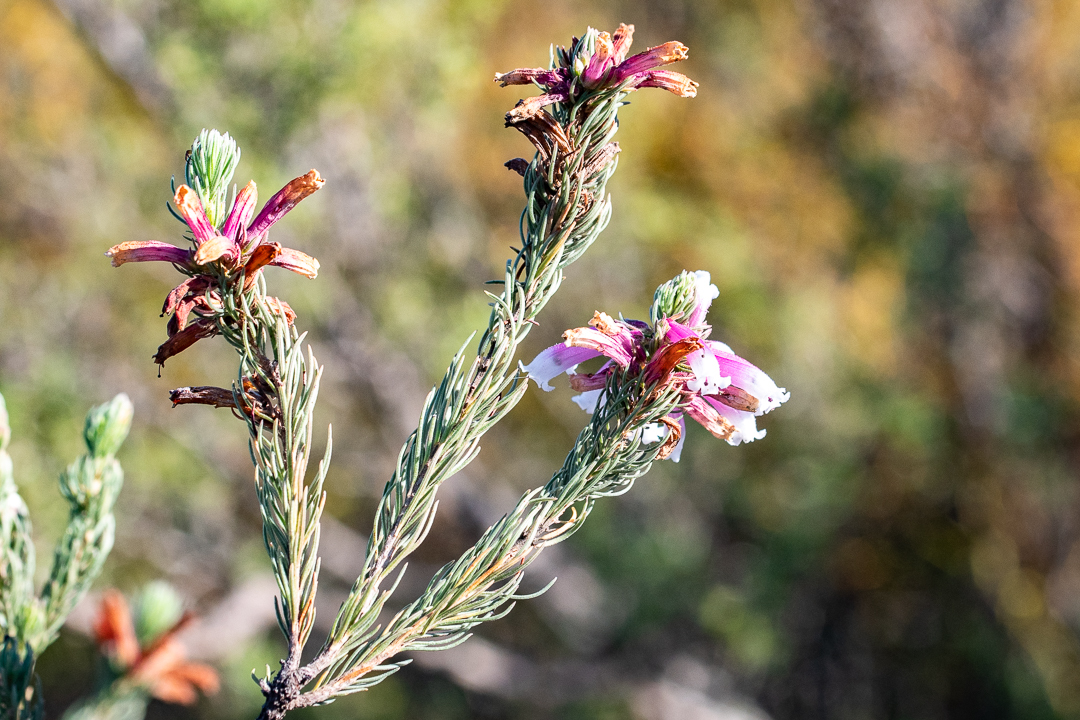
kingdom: Plantae
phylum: Tracheophyta
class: Magnoliopsida
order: Ericales
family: Ericaceae
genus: Erica
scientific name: Erica viscaria
